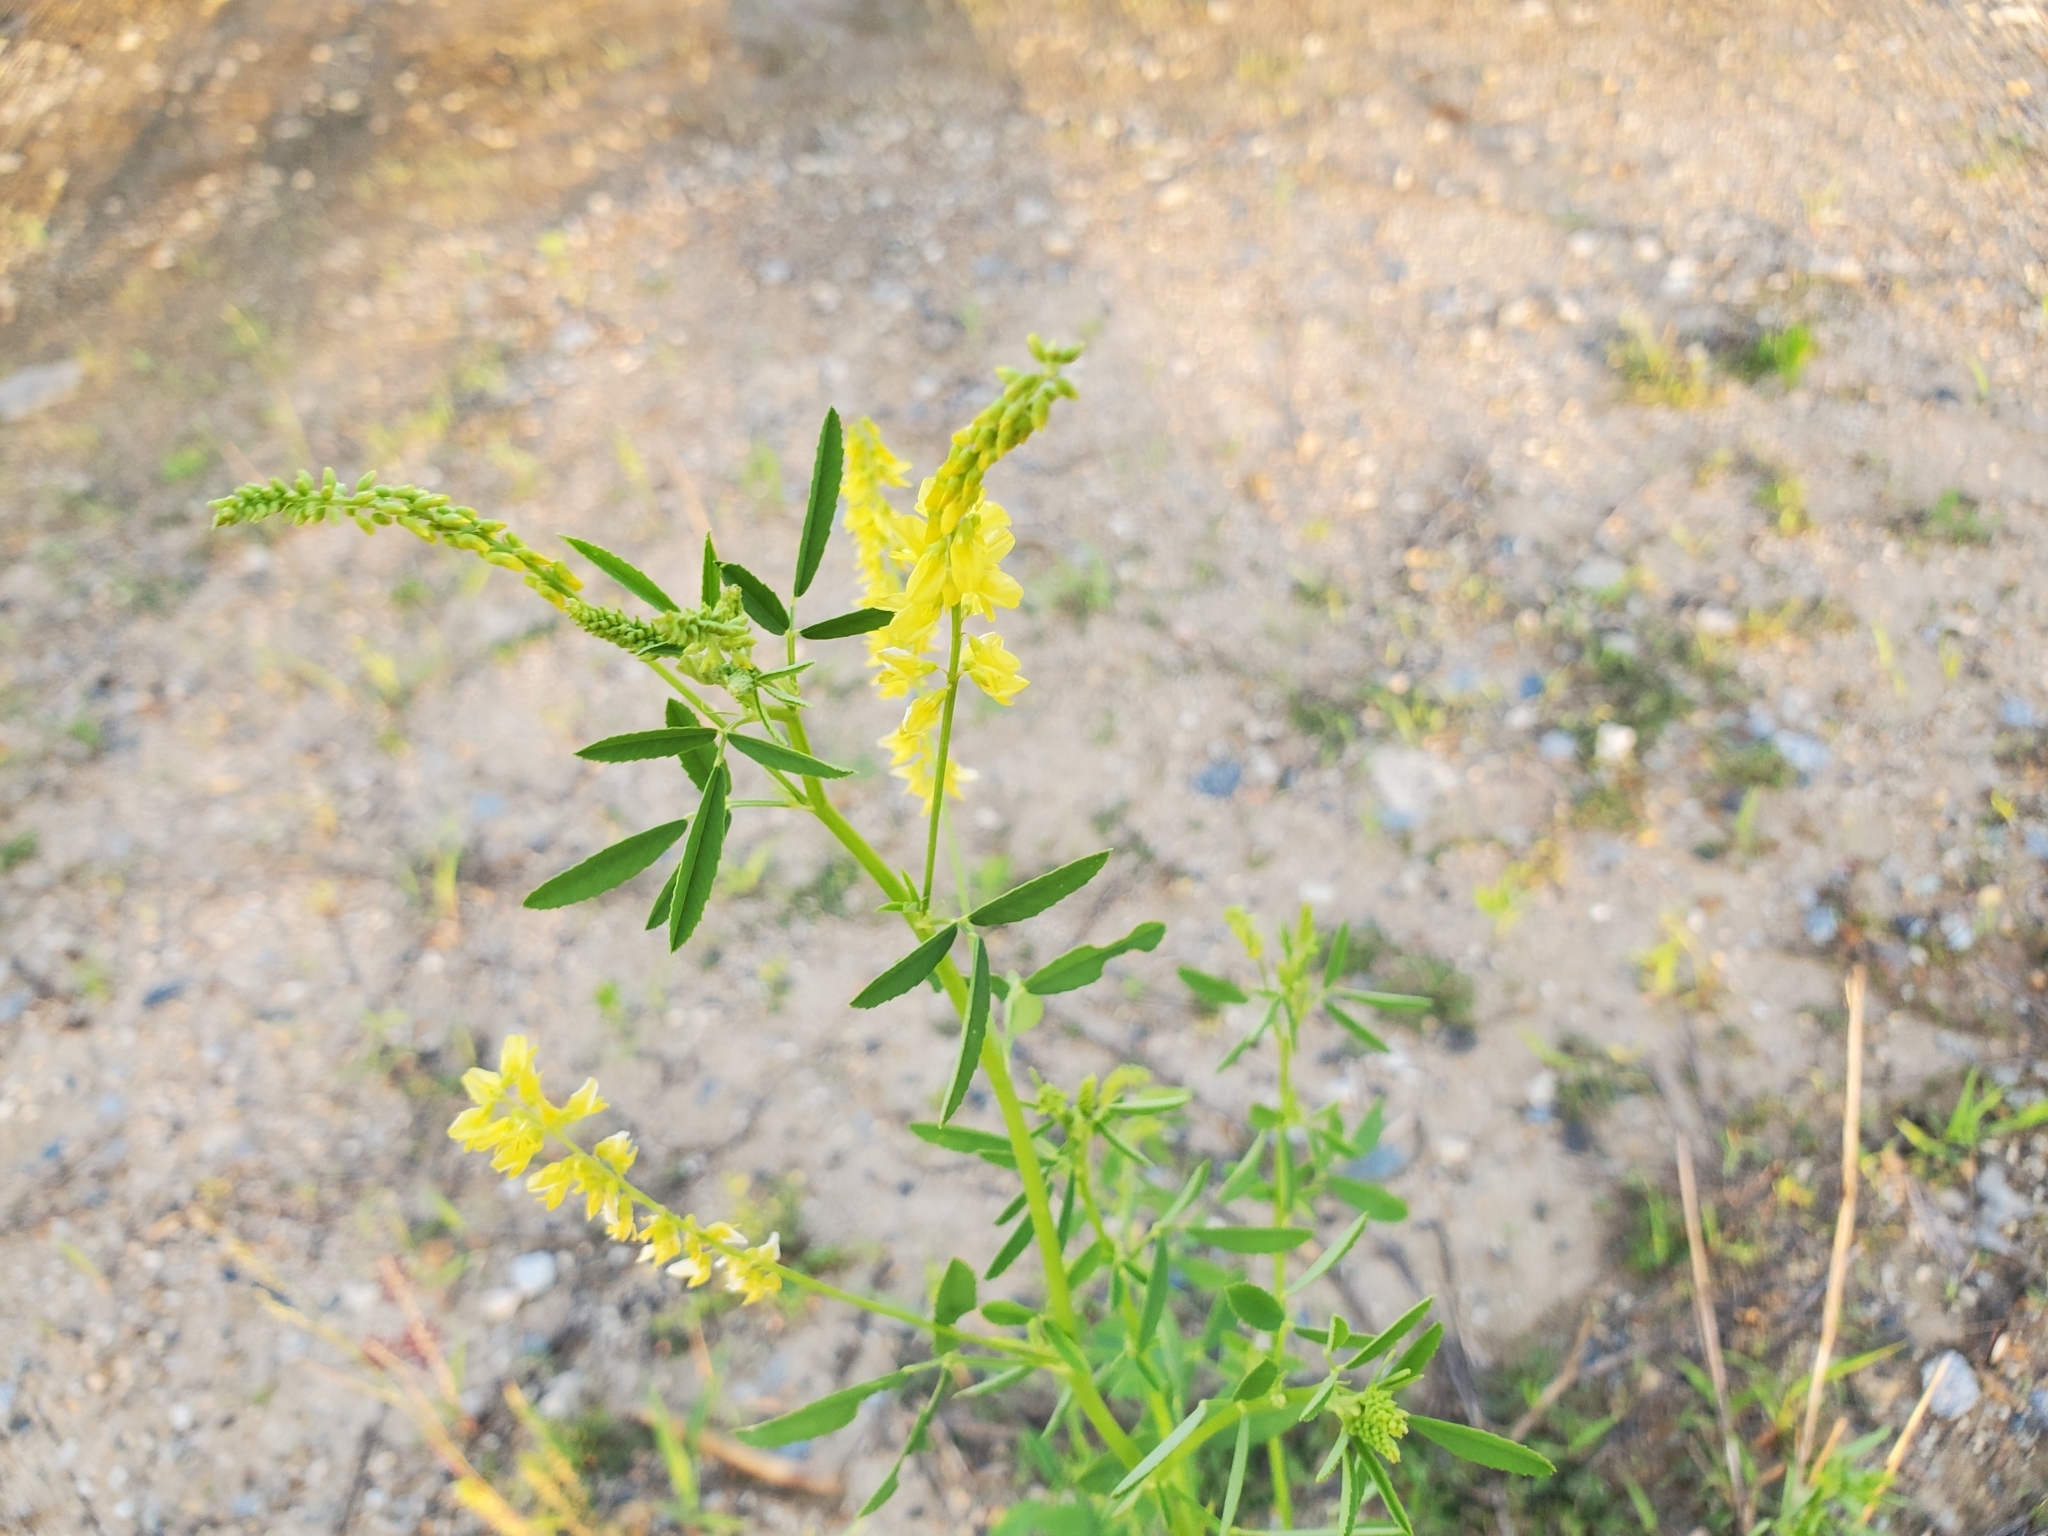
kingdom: Plantae
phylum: Tracheophyta
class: Magnoliopsida
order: Fabales
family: Fabaceae
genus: Melilotus
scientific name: Melilotus officinalis
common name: Sweetclover
